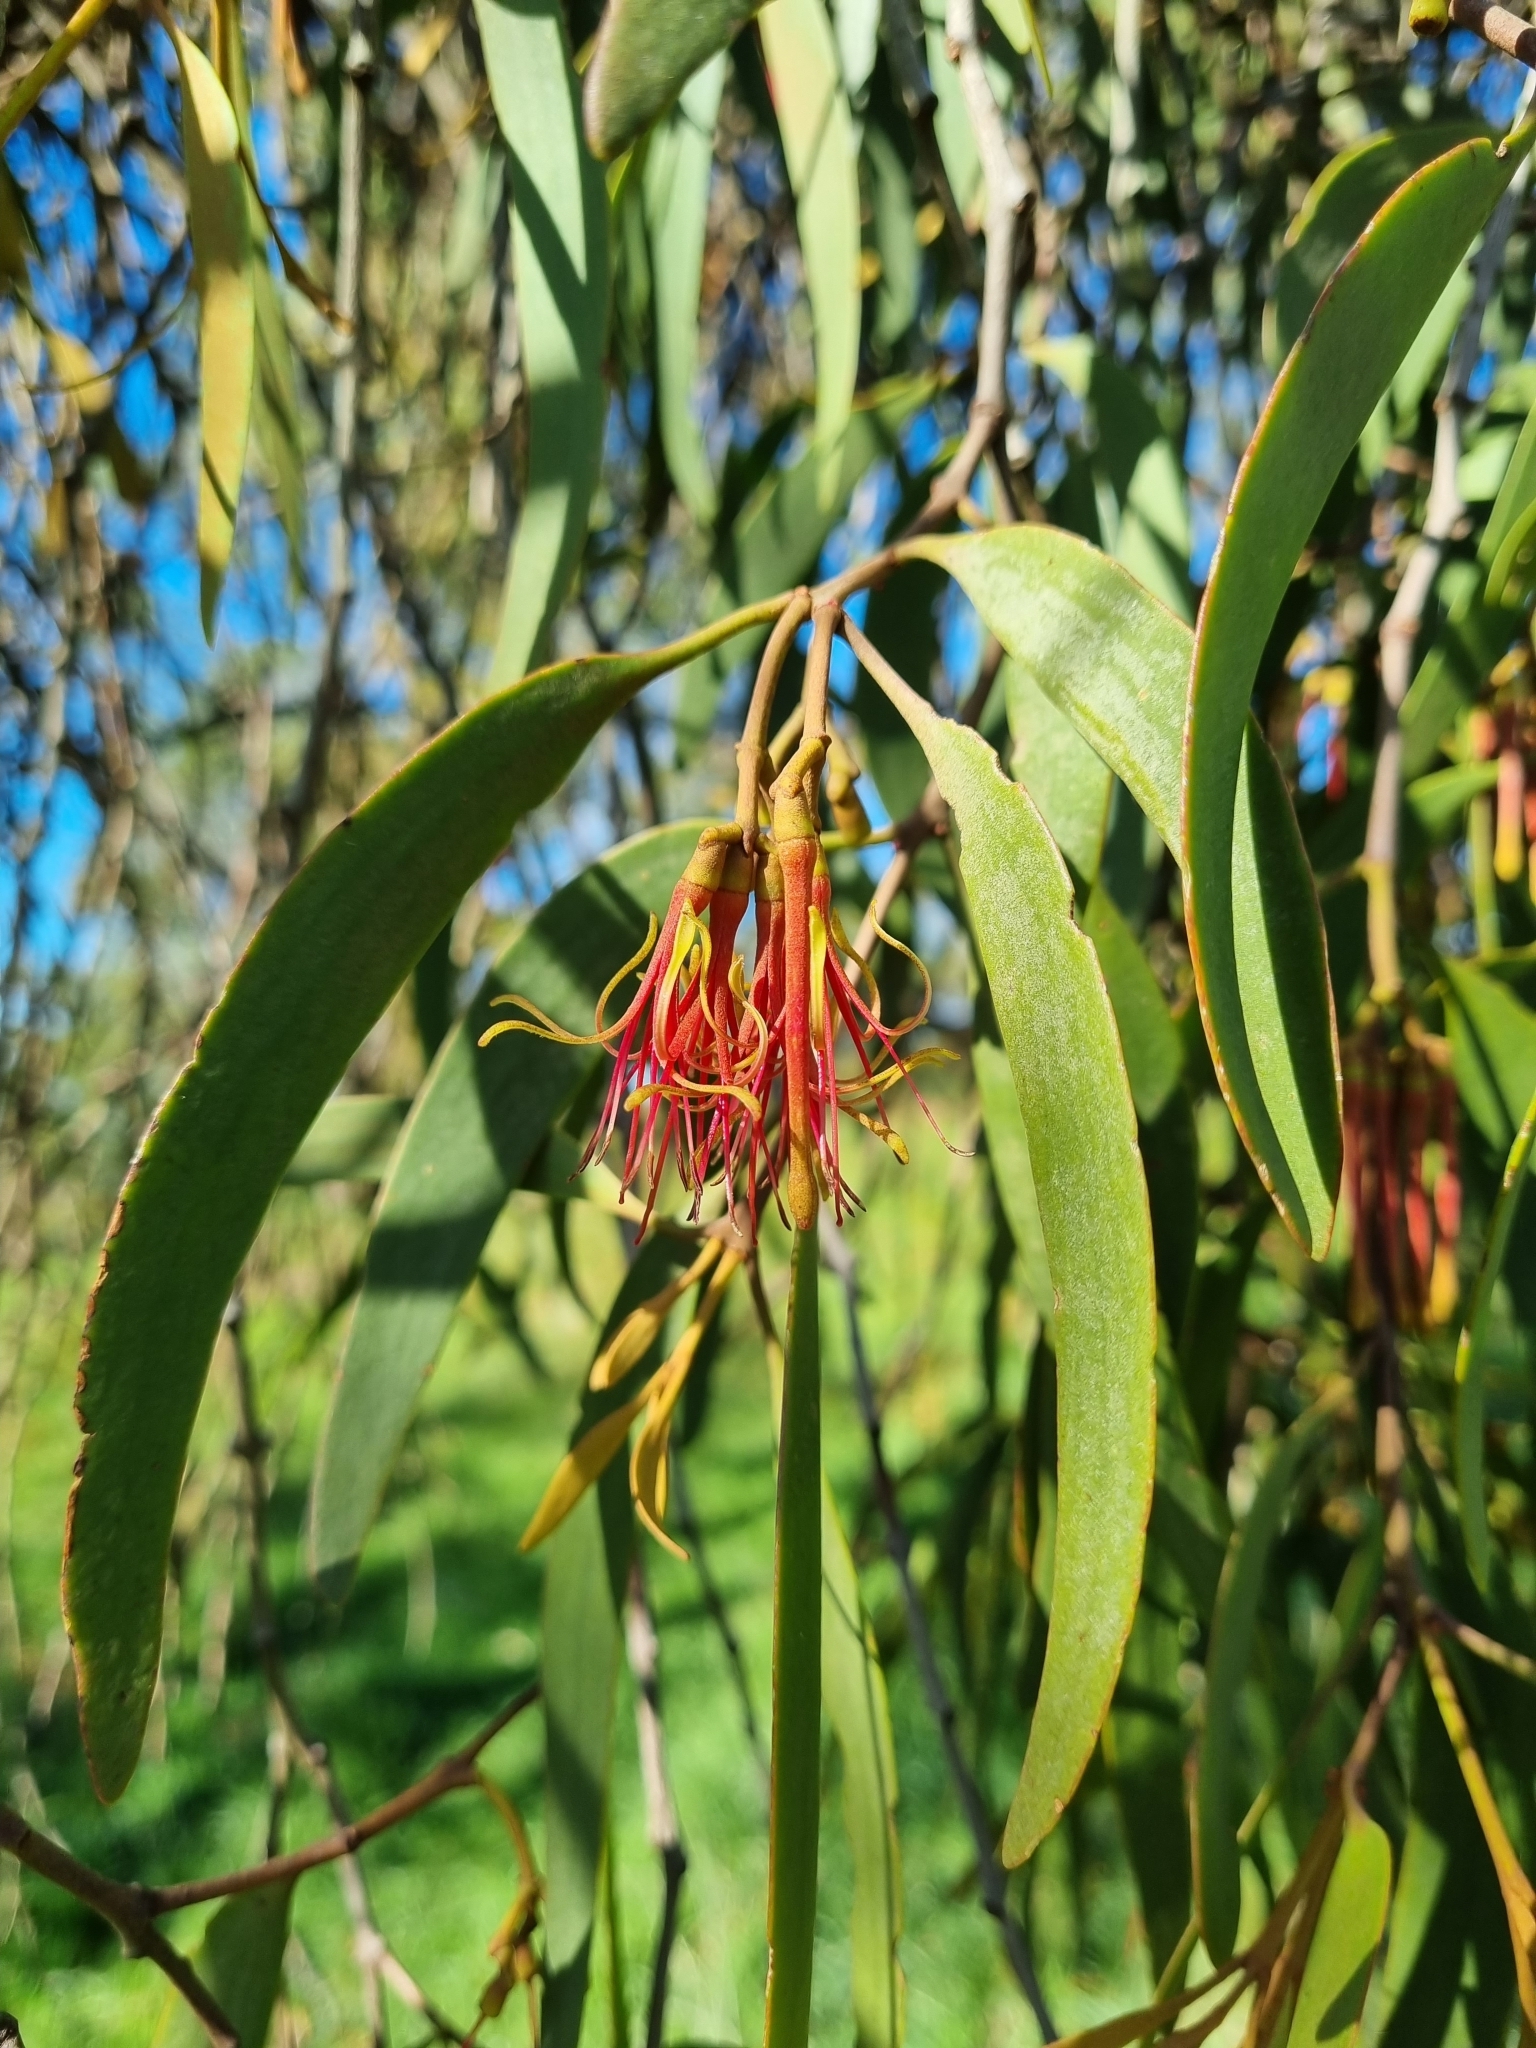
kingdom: Plantae
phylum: Tracheophyta
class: Magnoliopsida
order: Santalales
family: Loranthaceae
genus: Amyema
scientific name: Amyema pendula
